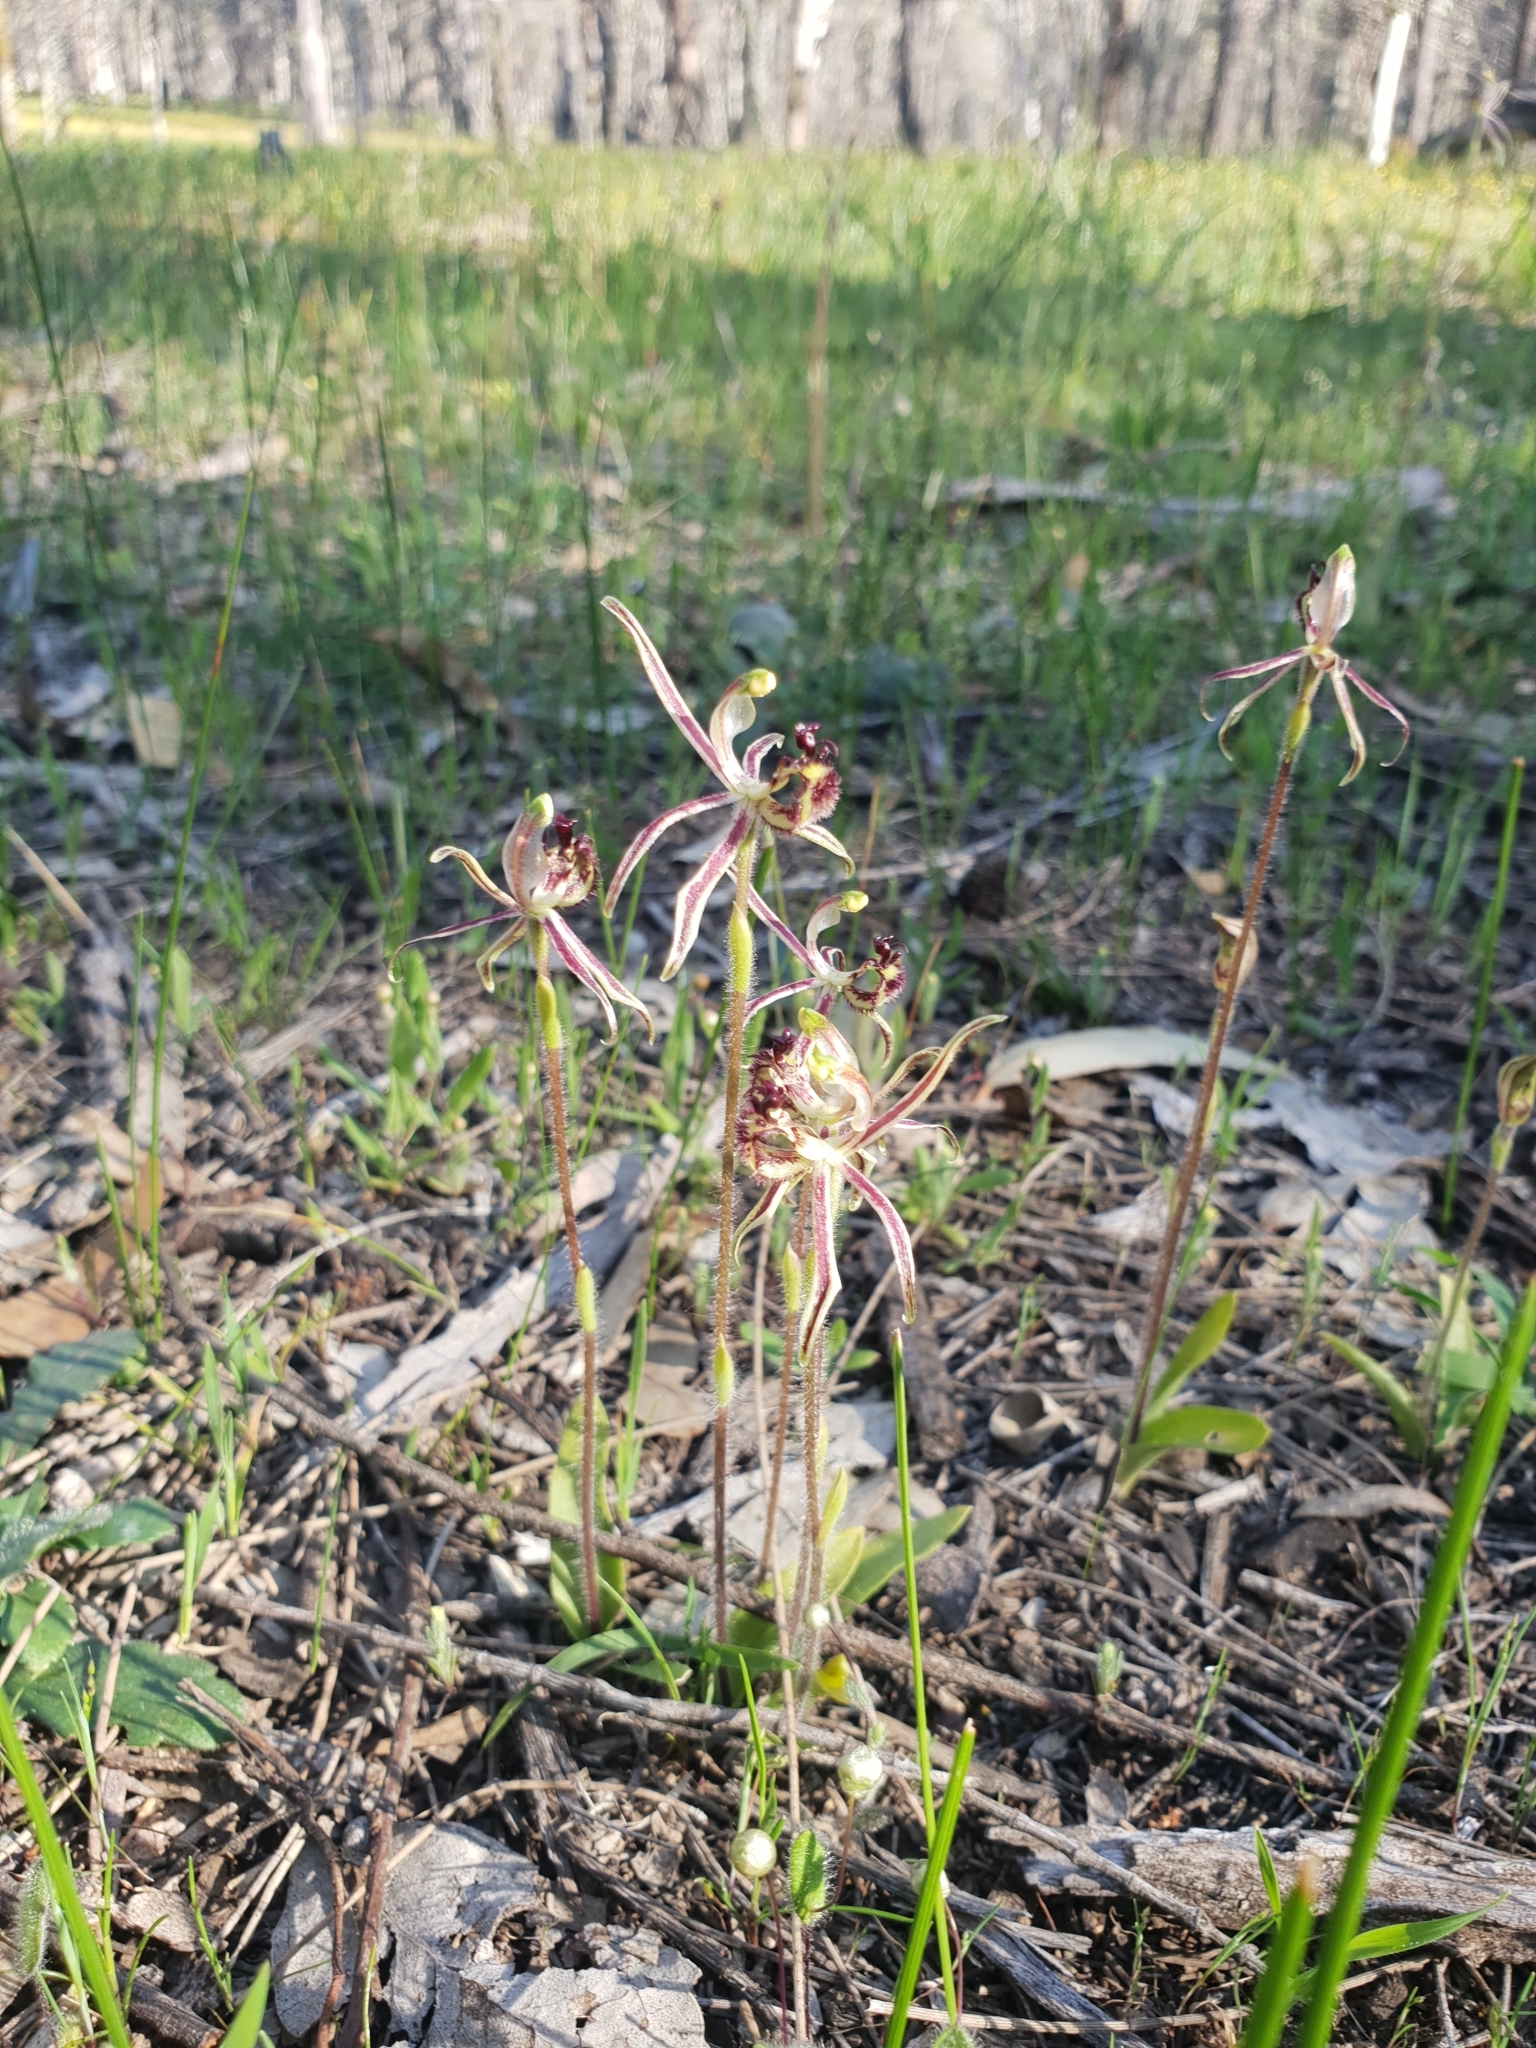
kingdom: Plantae
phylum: Tracheophyta
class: Liliopsida
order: Asparagales
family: Orchidaceae
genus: Caladenia
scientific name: Caladenia barbarossa
